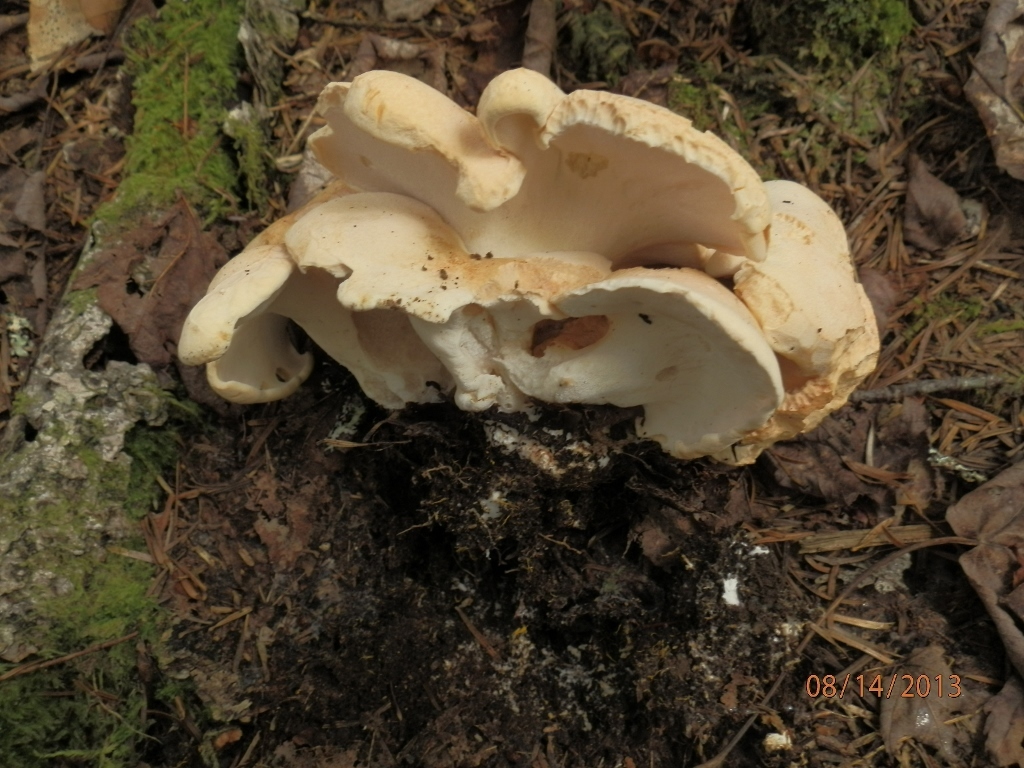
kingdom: Fungi
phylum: Basidiomycota
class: Agaricomycetes
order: Russulales
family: Albatrellaceae
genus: Albatrellopsis
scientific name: Albatrellopsis confluens
